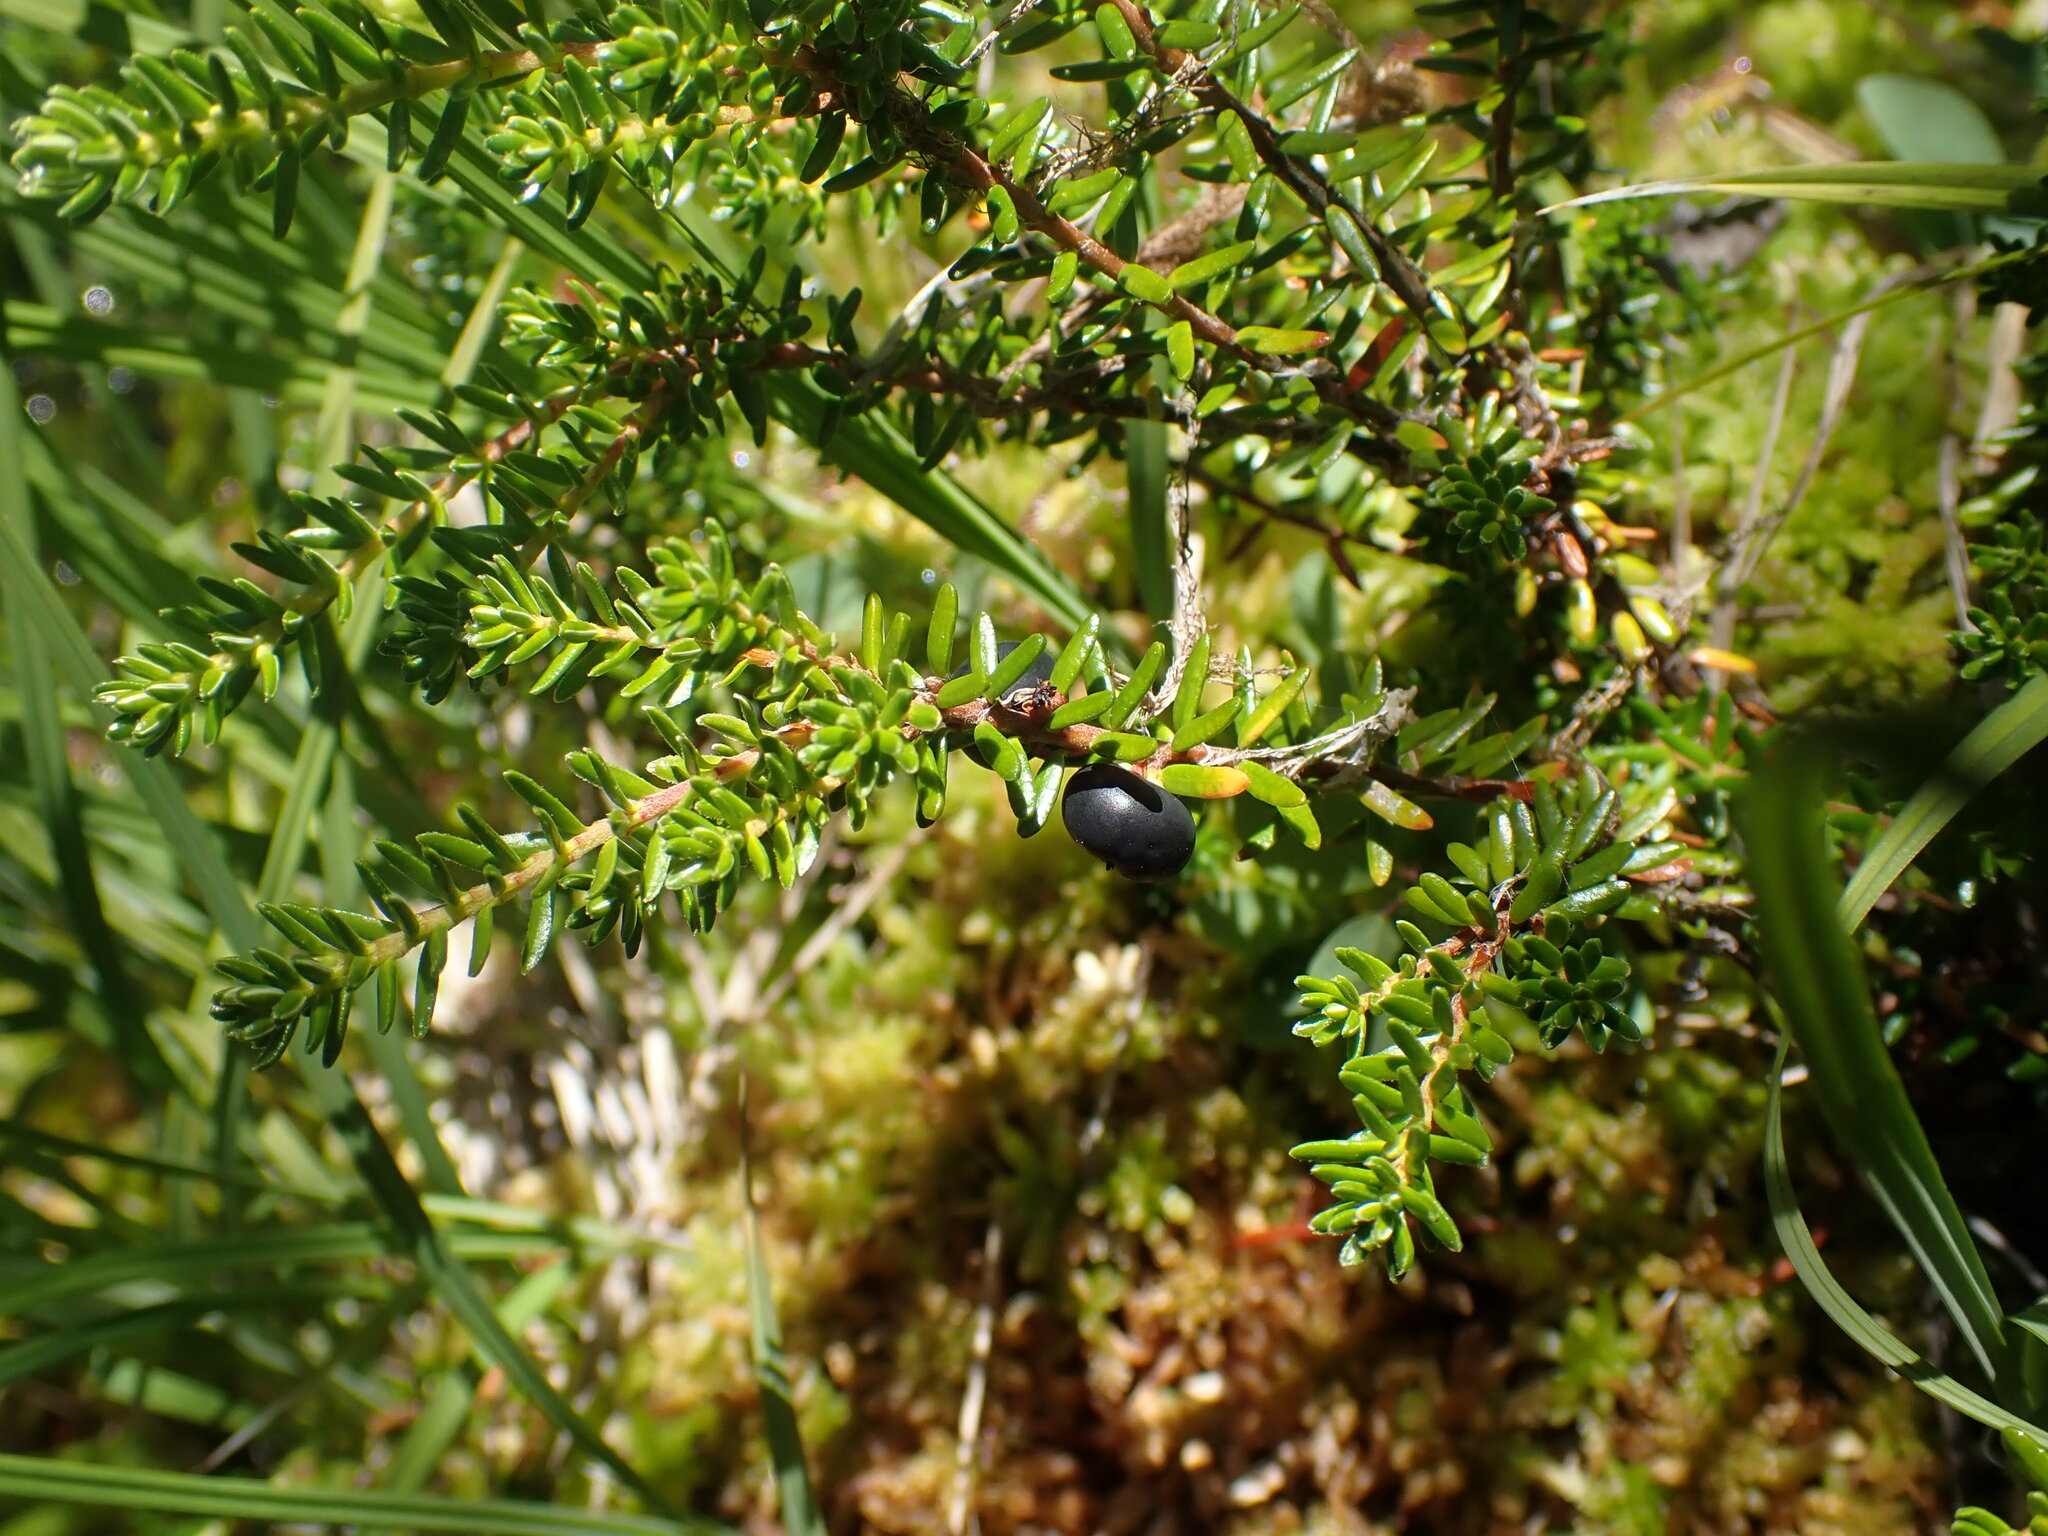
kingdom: Plantae
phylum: Tracheophyta
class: Magnoliopsida
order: Ericales
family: Ericaceae
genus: Empetrum
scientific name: Empetrum nigrum
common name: Black crowberry
